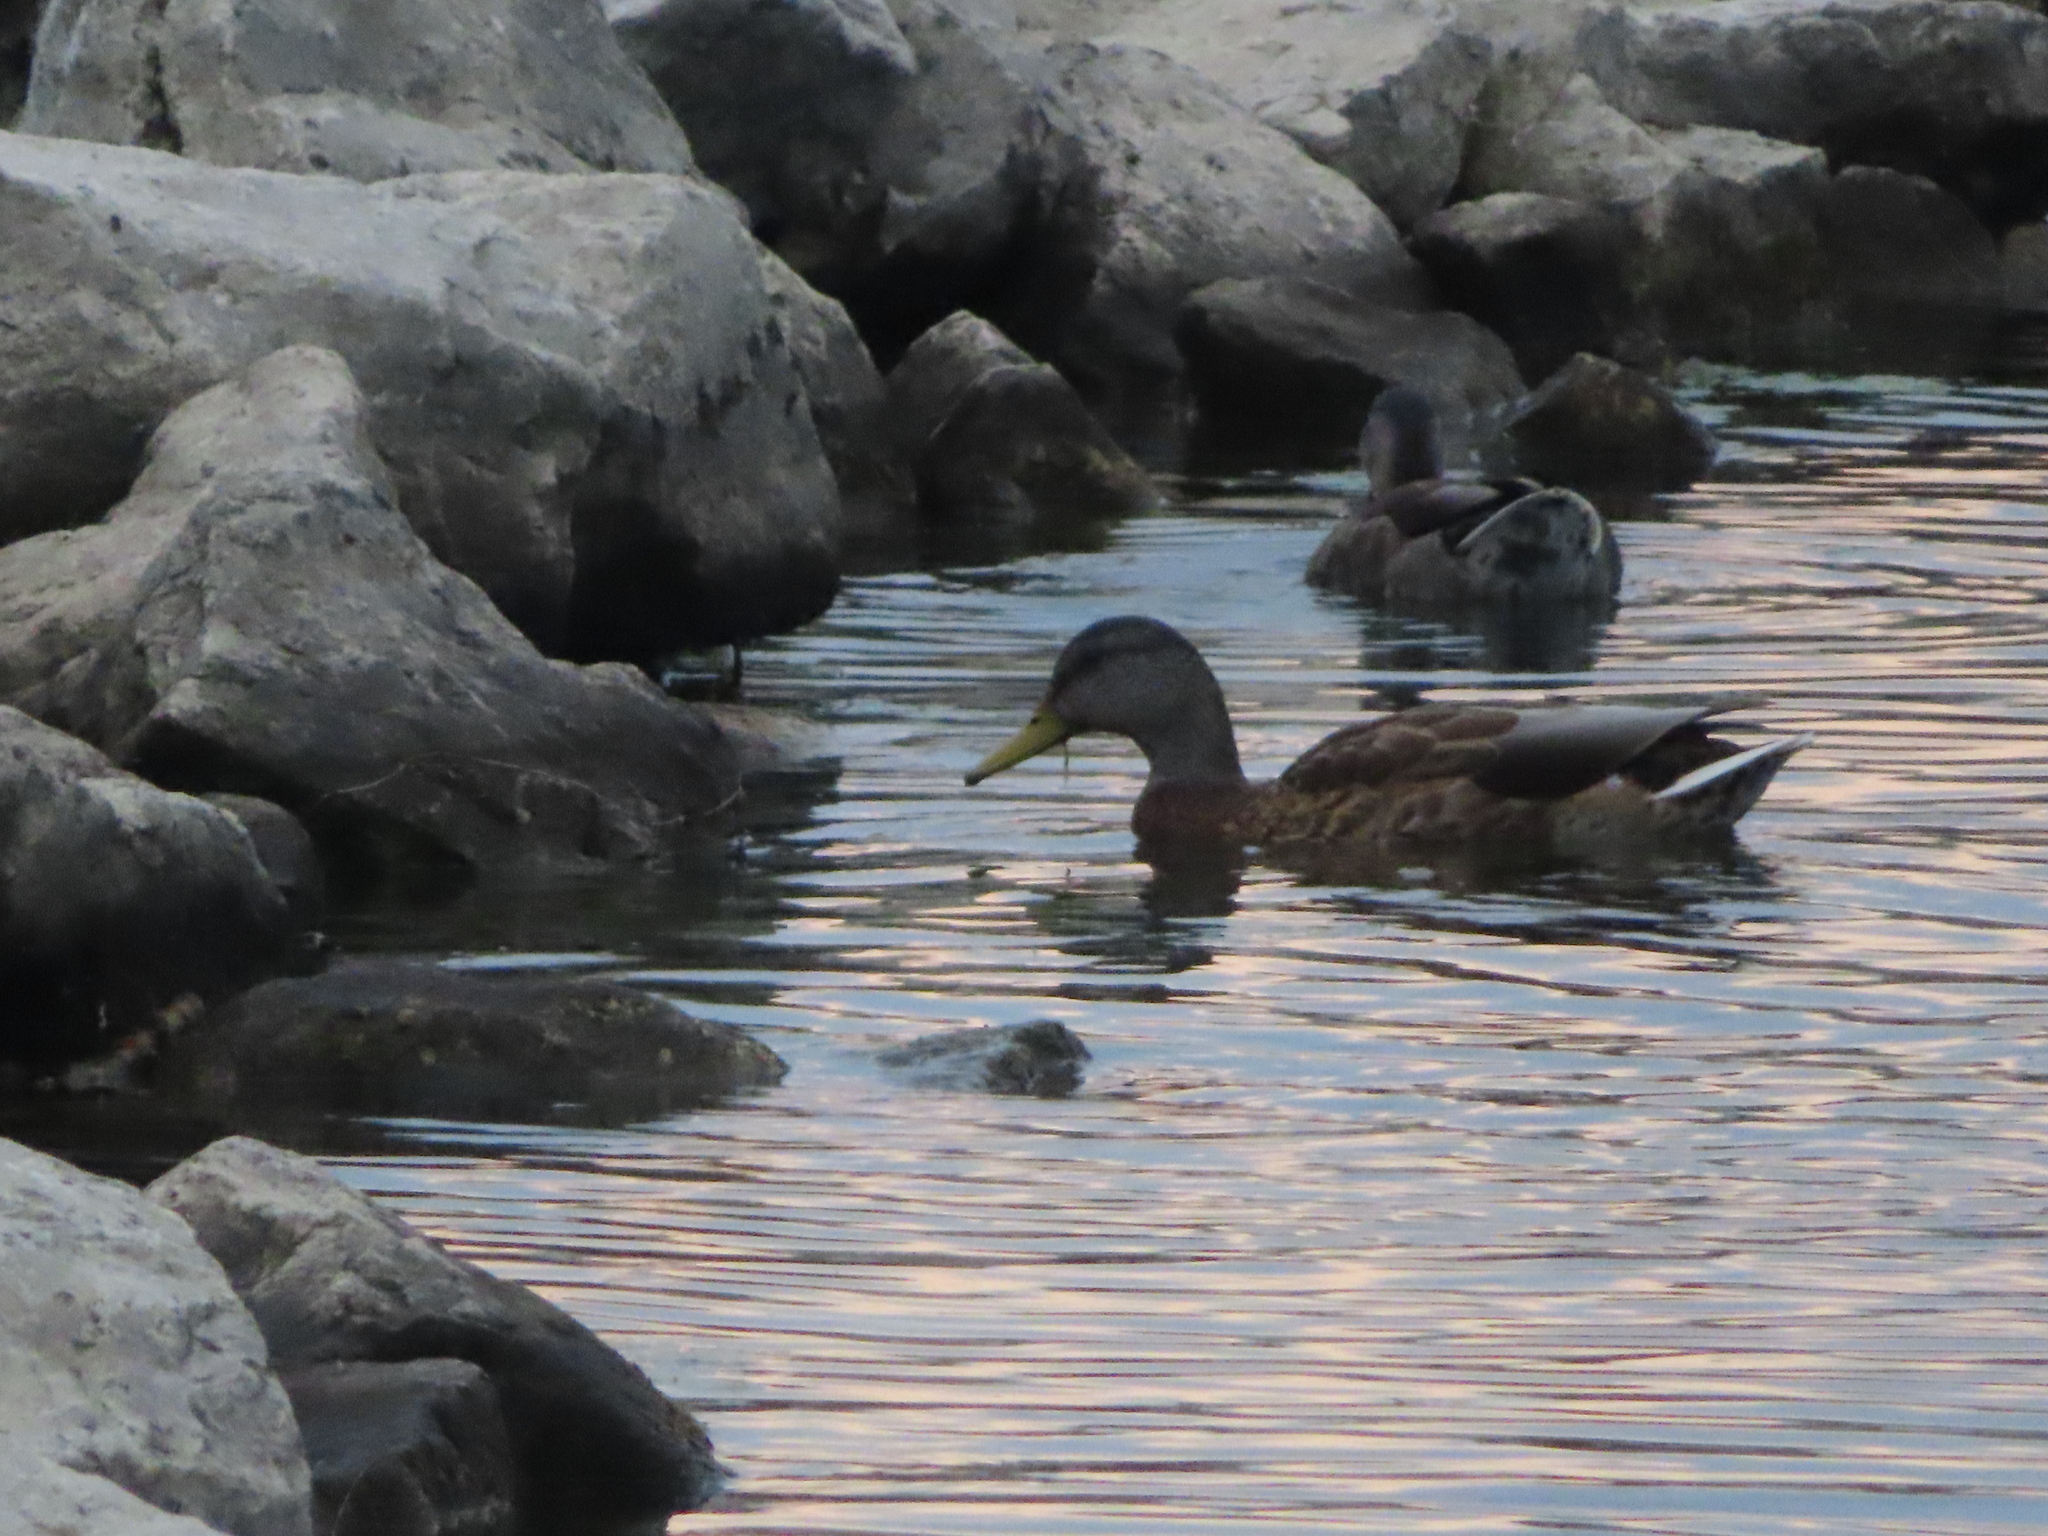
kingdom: Animalia
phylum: Chordata
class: Aves
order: Anseriformes
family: Anatidae
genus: Anas
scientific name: Anas platyrhynchos
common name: Mallard
